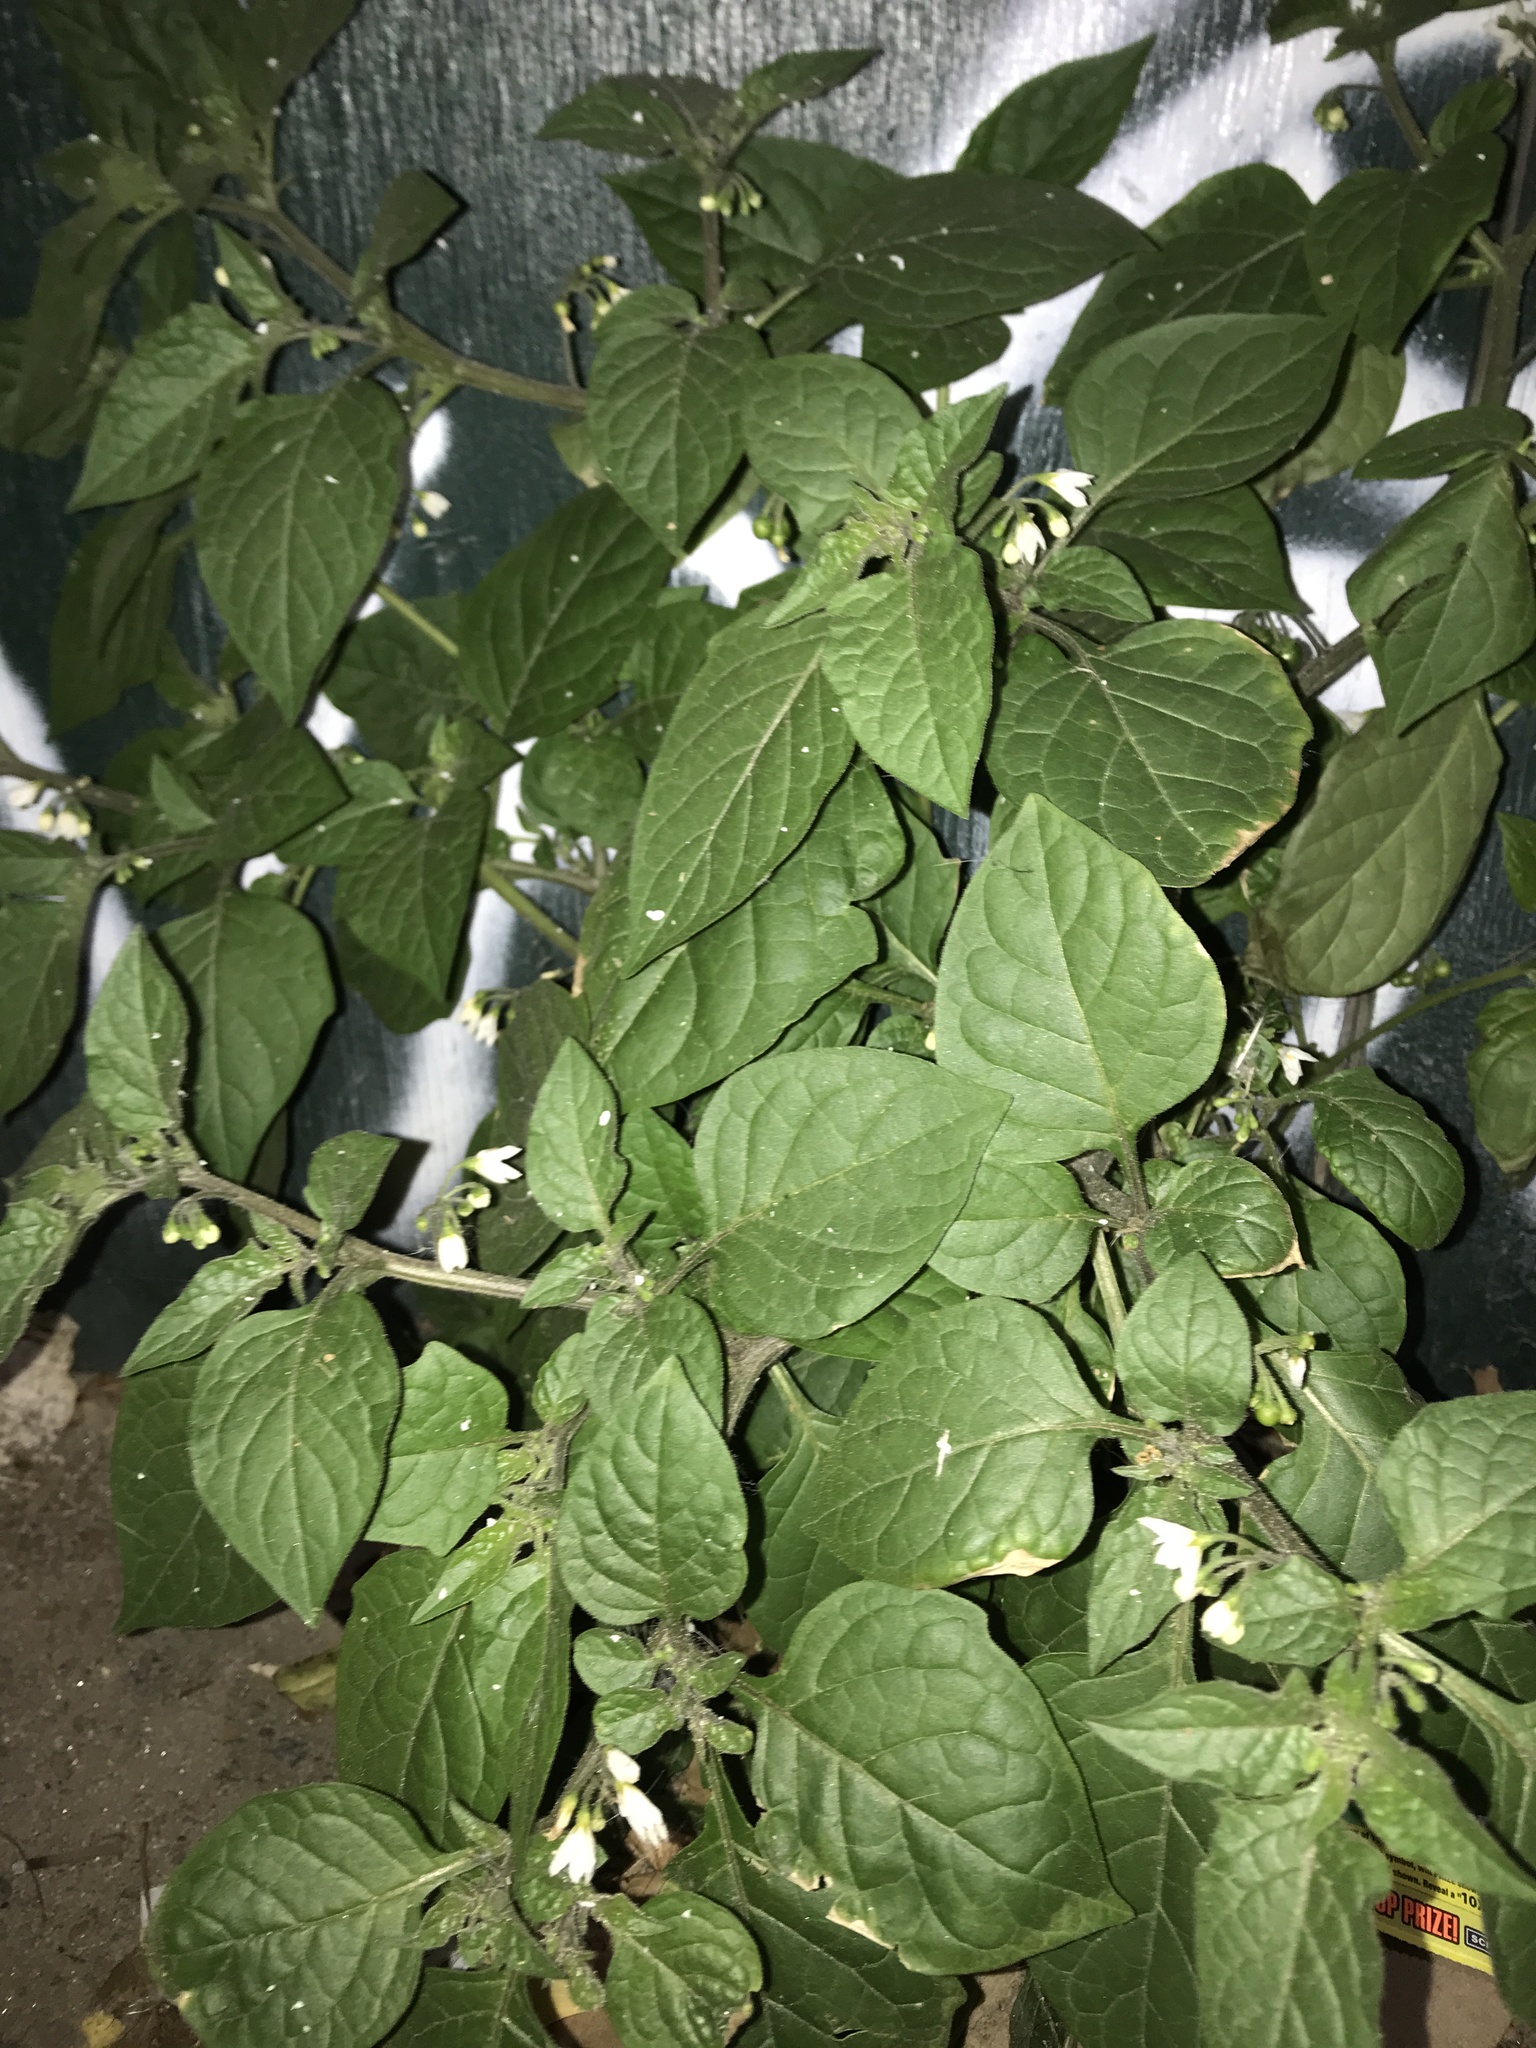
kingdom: Plantae
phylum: Tracheophyta
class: Magnoliopsida
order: Solanales
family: Solanaceae
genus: Solanum
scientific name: Solanum nigrum
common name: Black nightshade
